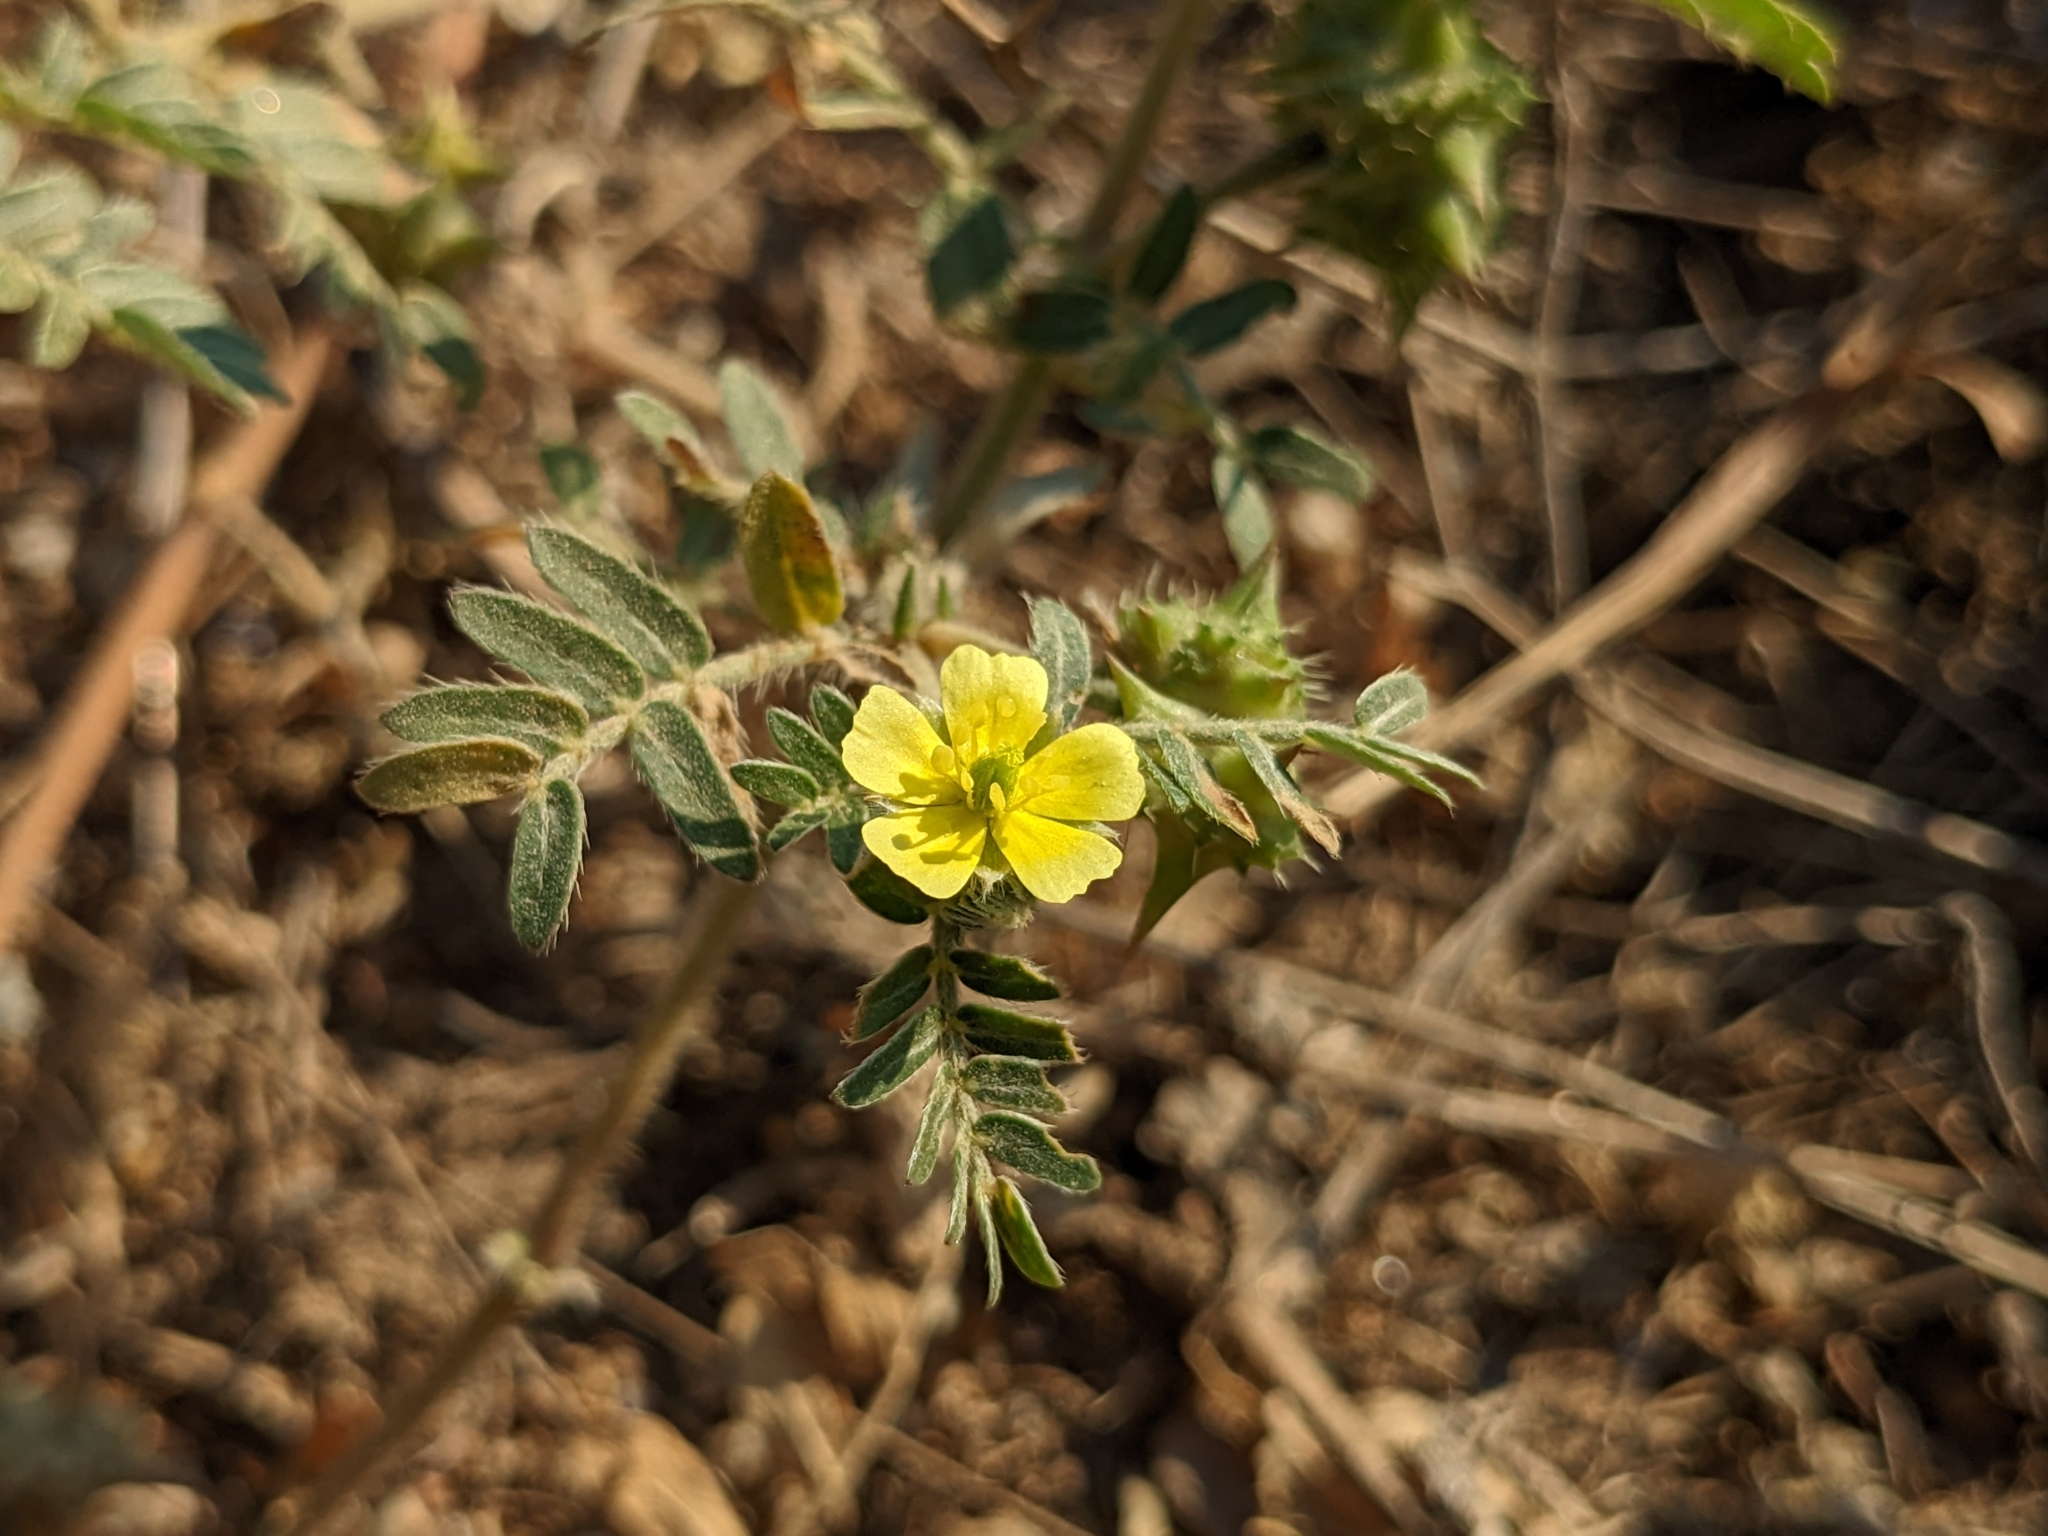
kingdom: Plantae
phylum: Tracheophyta
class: Magnoliopsida
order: Zygophyllales
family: Zygophyllaceae
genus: Tribulus
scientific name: Tribulus terrestris
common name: Puncturevine
